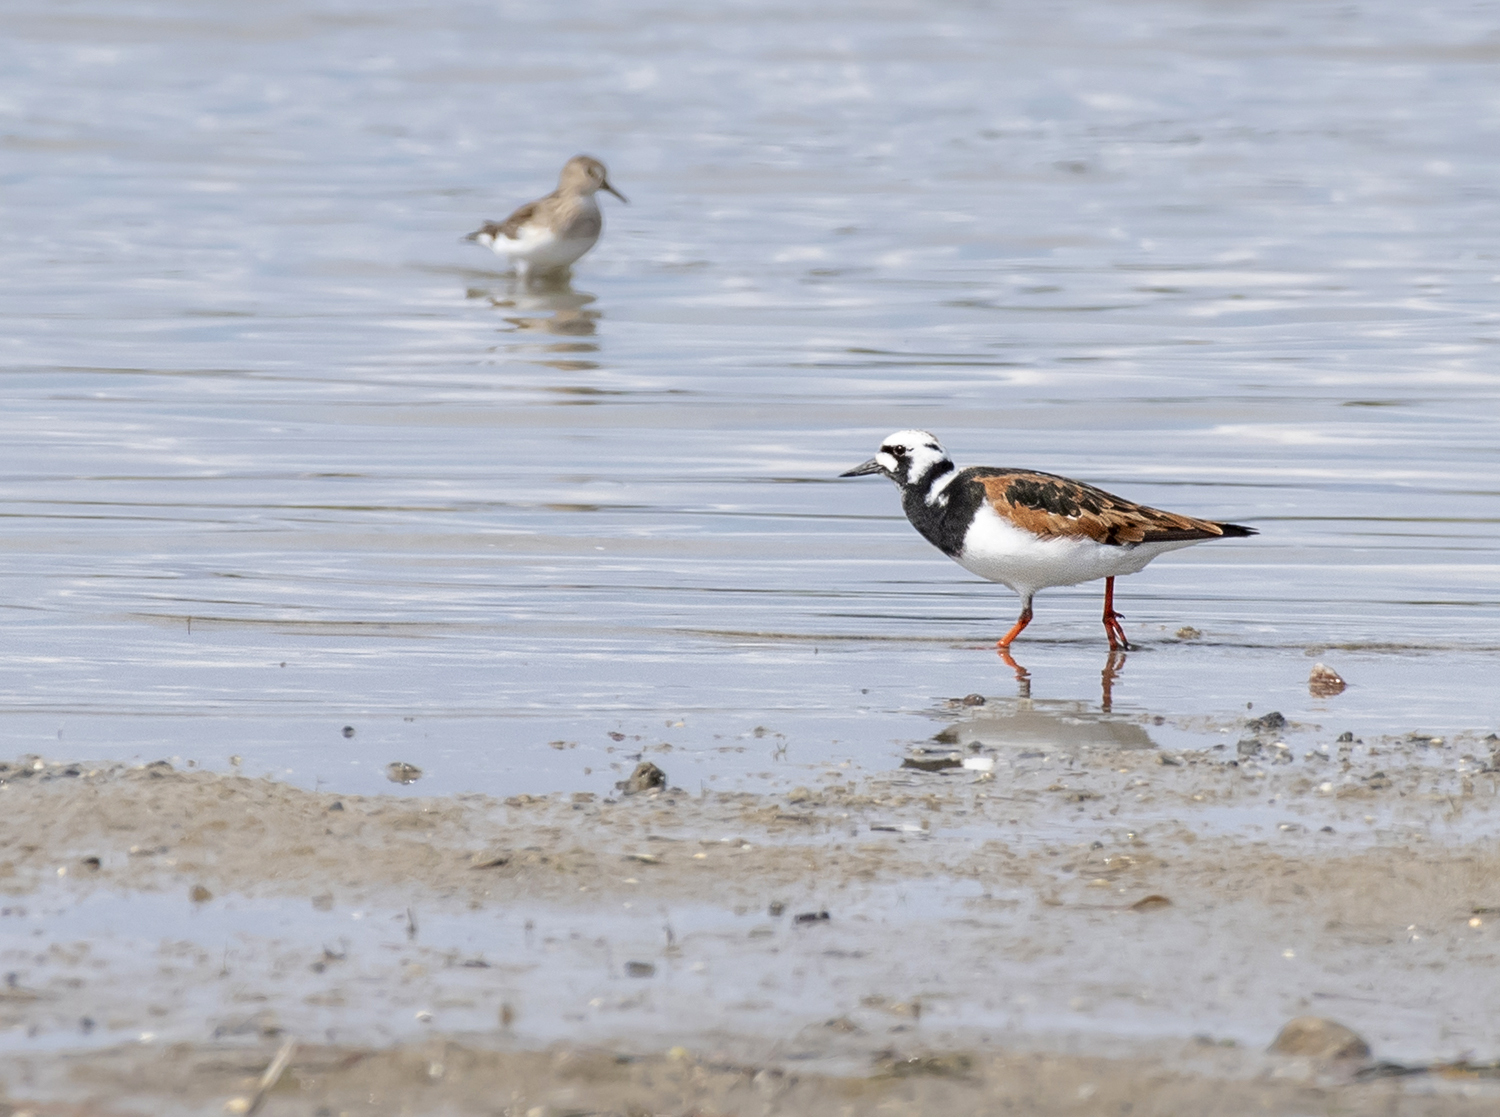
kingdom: Animalia
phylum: Chordata
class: Aves
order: Charadriiformes
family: Scolopacidae
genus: Arenaria
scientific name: Arenaria interpres
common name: Ruddy turnstone
